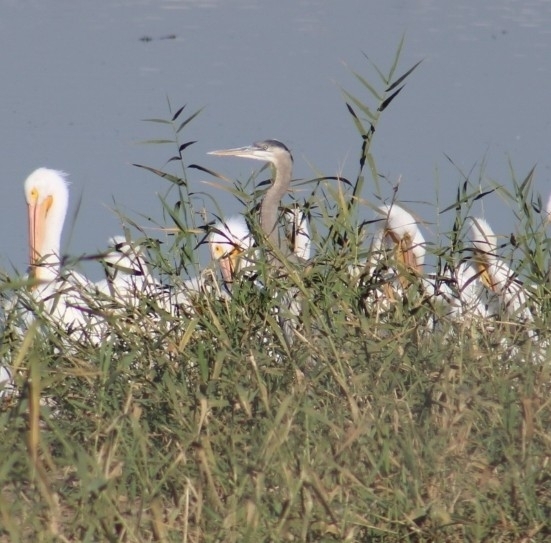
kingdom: Animalia
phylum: Chordata
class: Aves
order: Pelecaniformes
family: Ardeidae
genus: Ardea
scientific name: Ardea herodias
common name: Great blue heron
